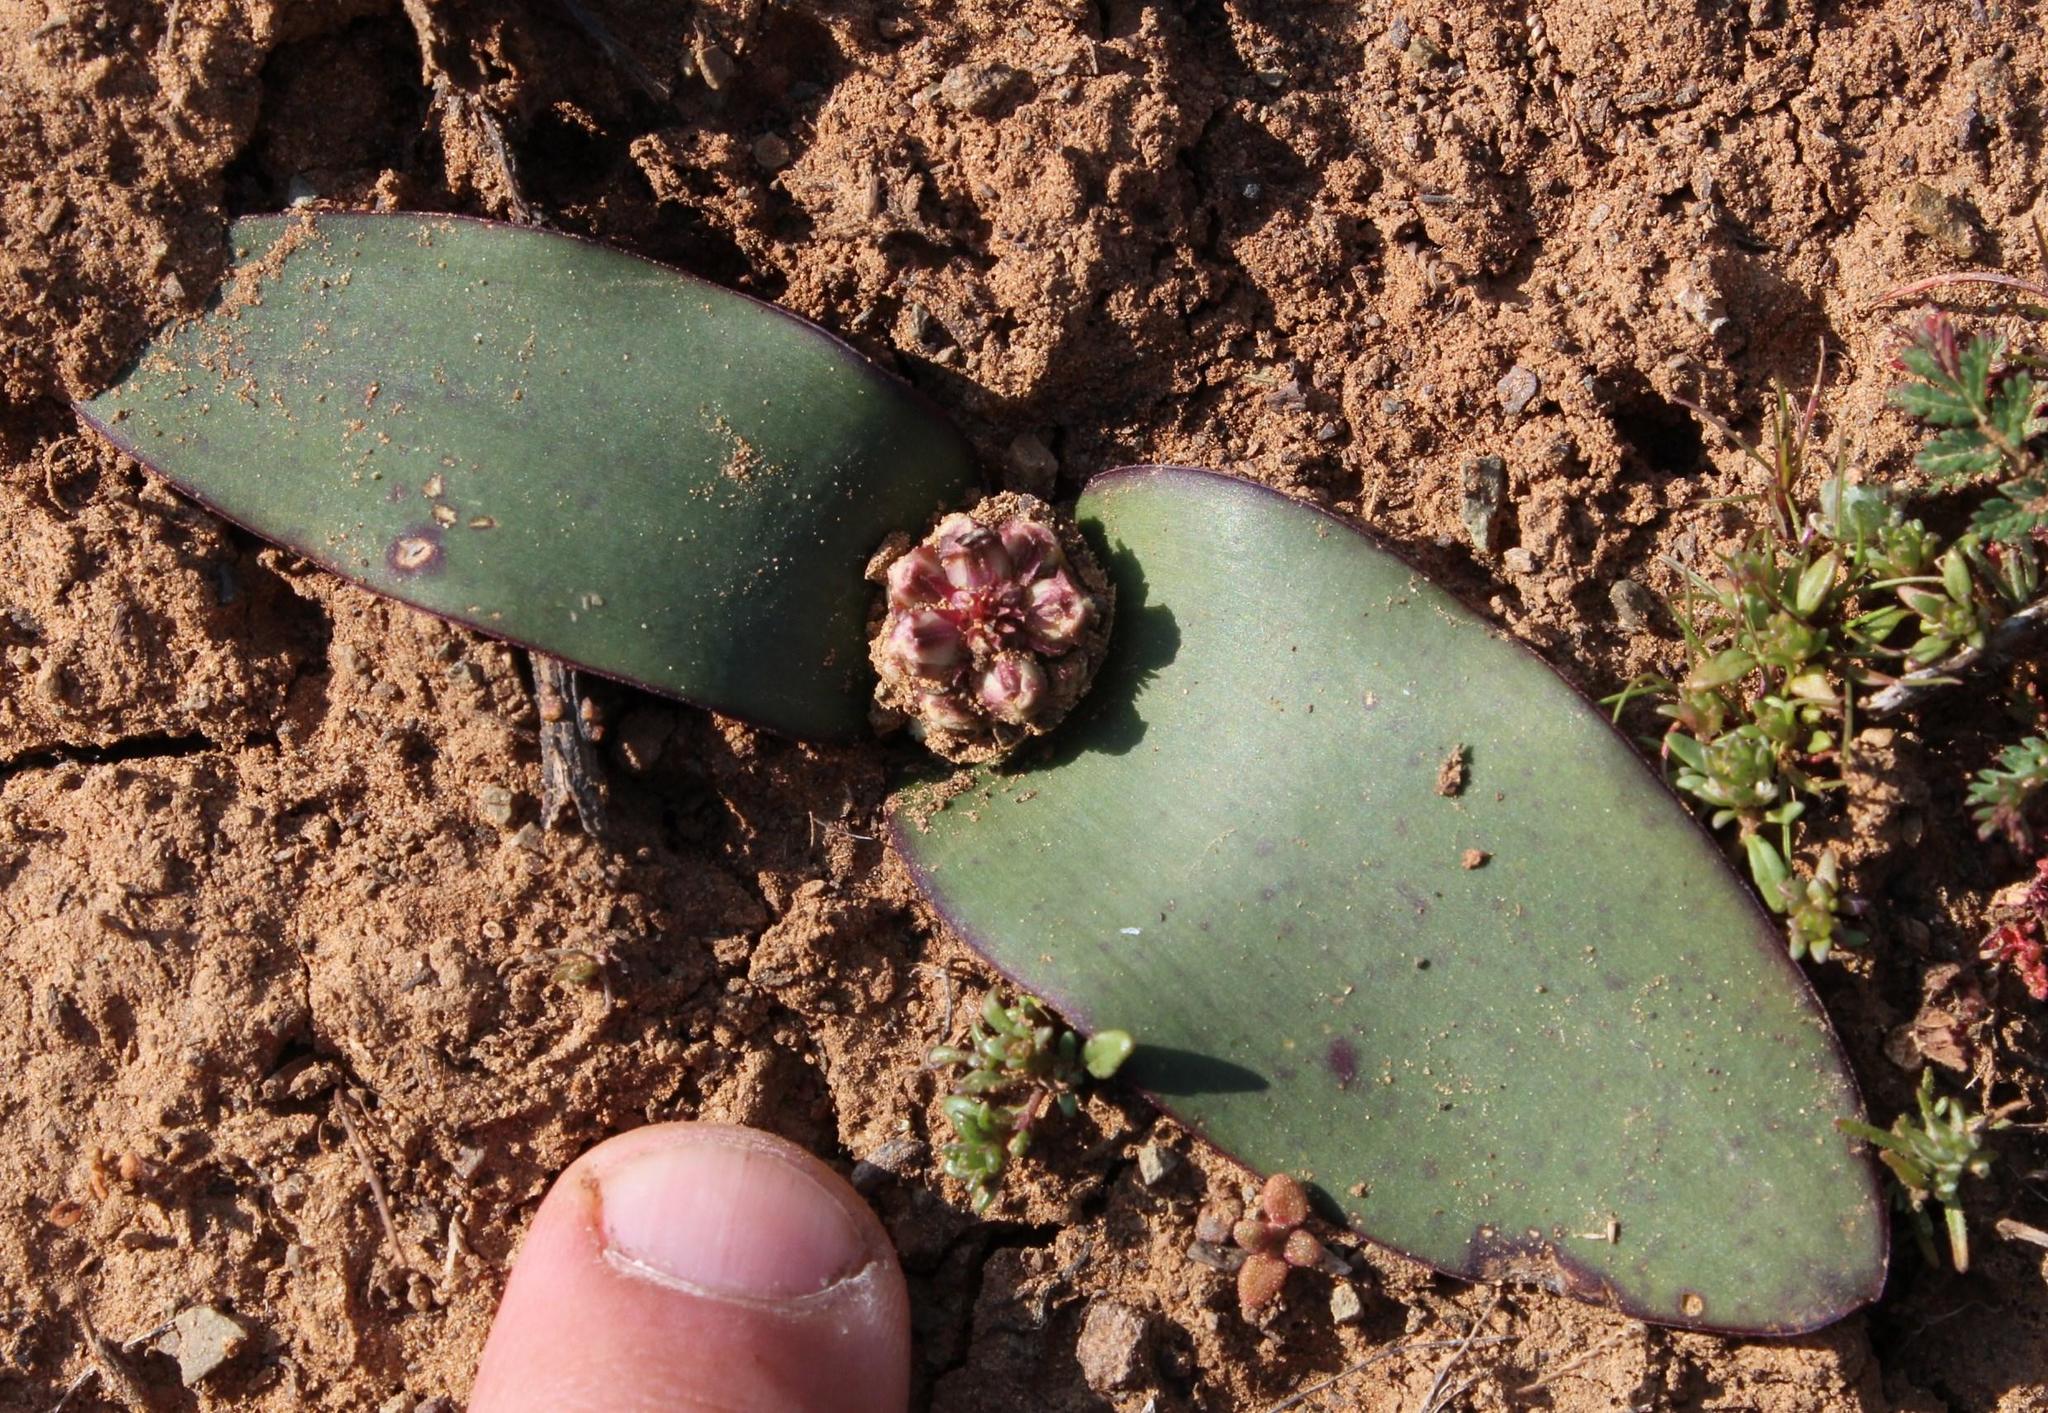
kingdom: Plantae
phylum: Tracheophyta
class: Liliopsida
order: Asparagales
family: Asparagaceae
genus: Lachenalia
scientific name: Lachenalia congesta
